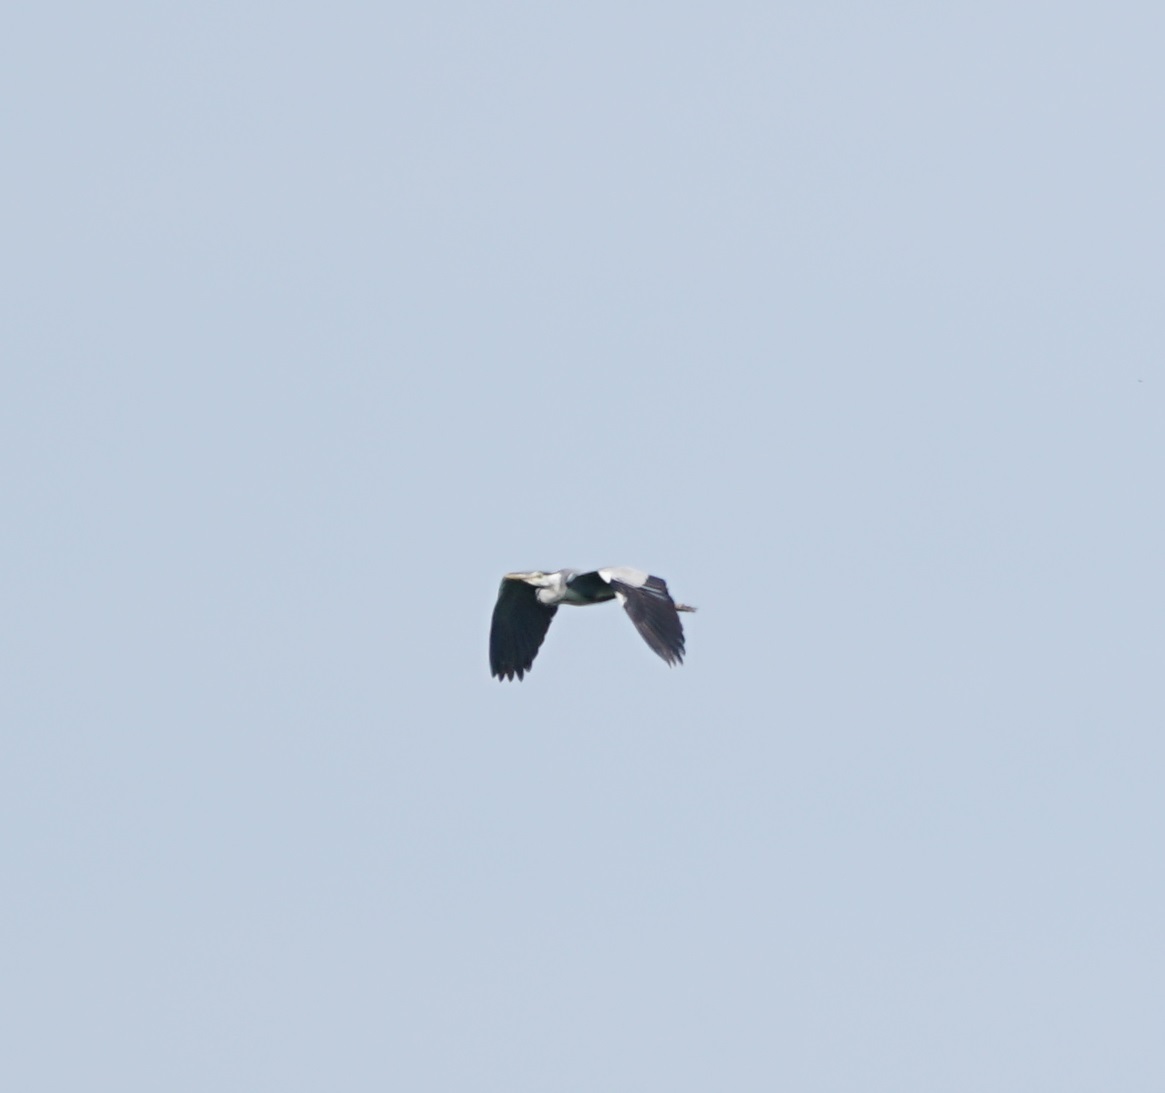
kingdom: Animalia
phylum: Chordata
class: Aves
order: Pelecaniformes
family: Ardeidae
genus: Ardea
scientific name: Ardea cinerea
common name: Grey heron
